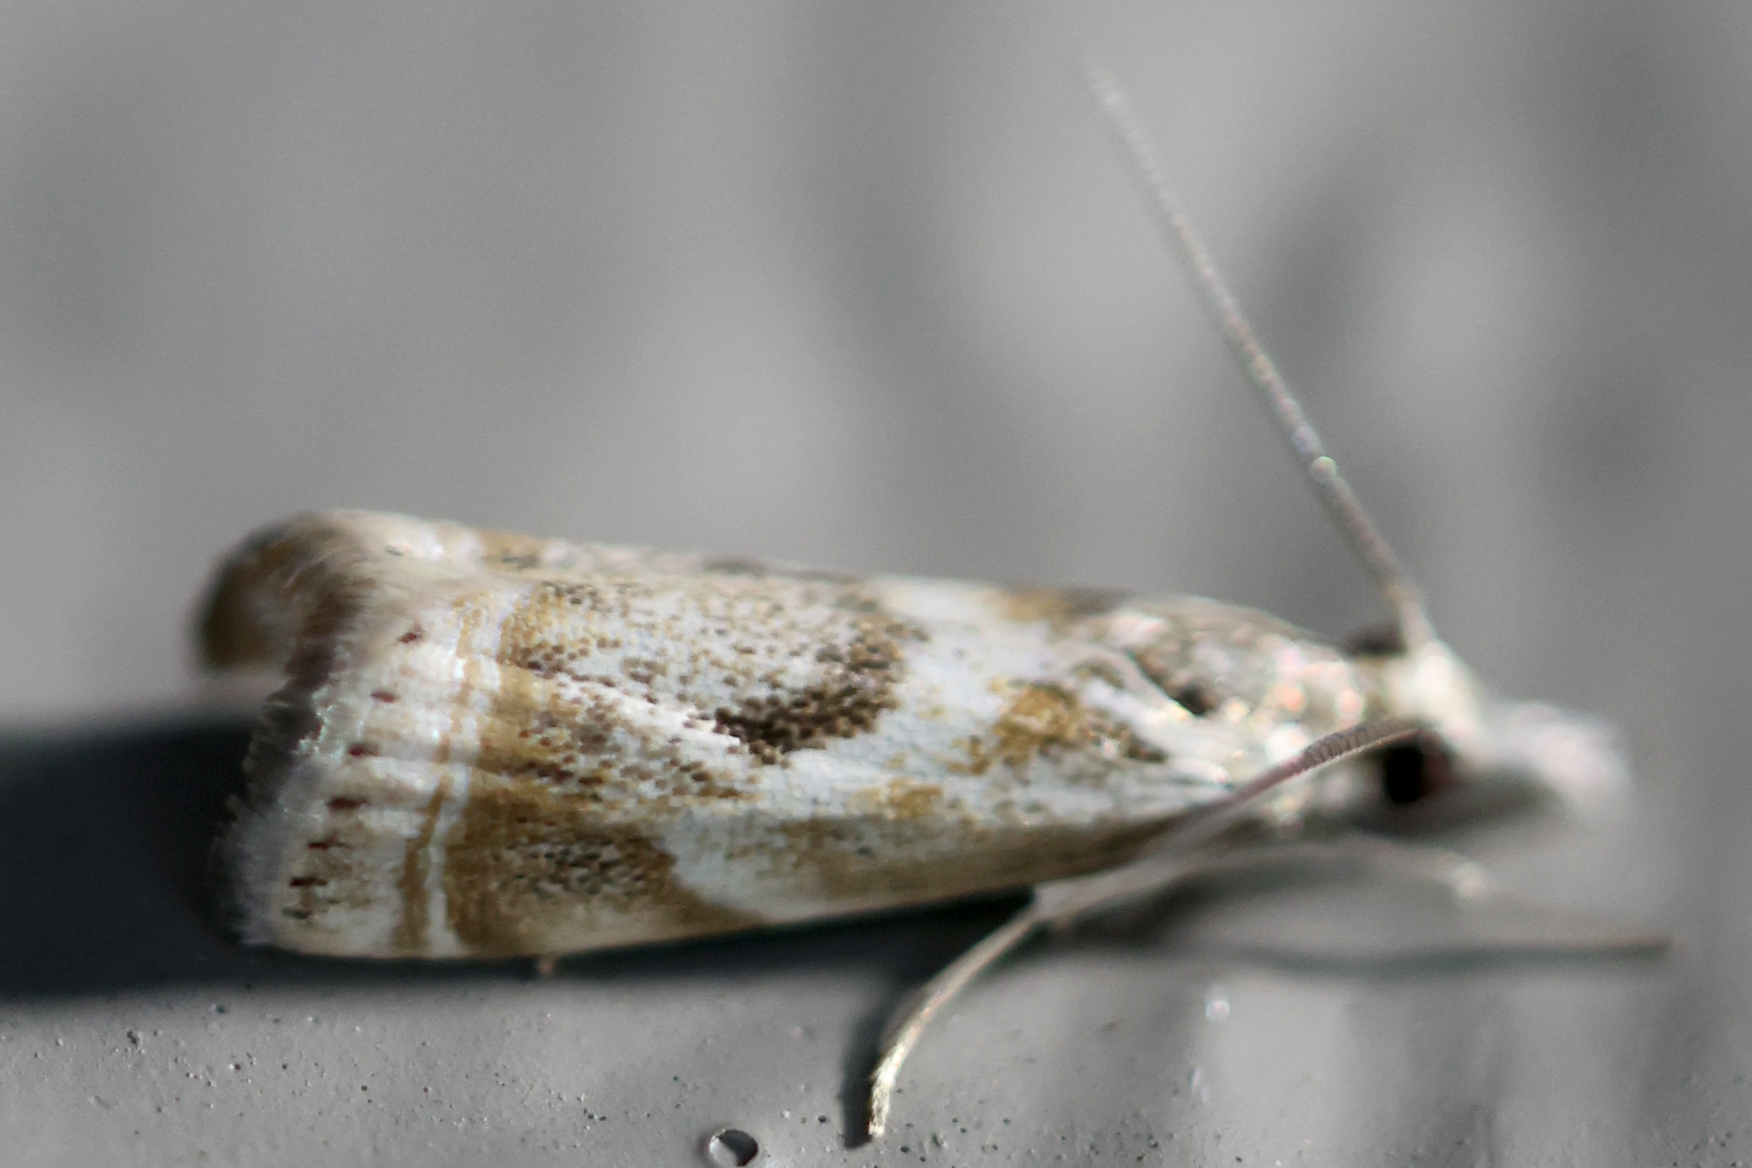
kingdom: Animalia
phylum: Arthropoda
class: Insecta
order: Lepidoptera
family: Crambidae
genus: Microcrambus
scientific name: Microcrambus elegans
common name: Elegant grass-veneer
